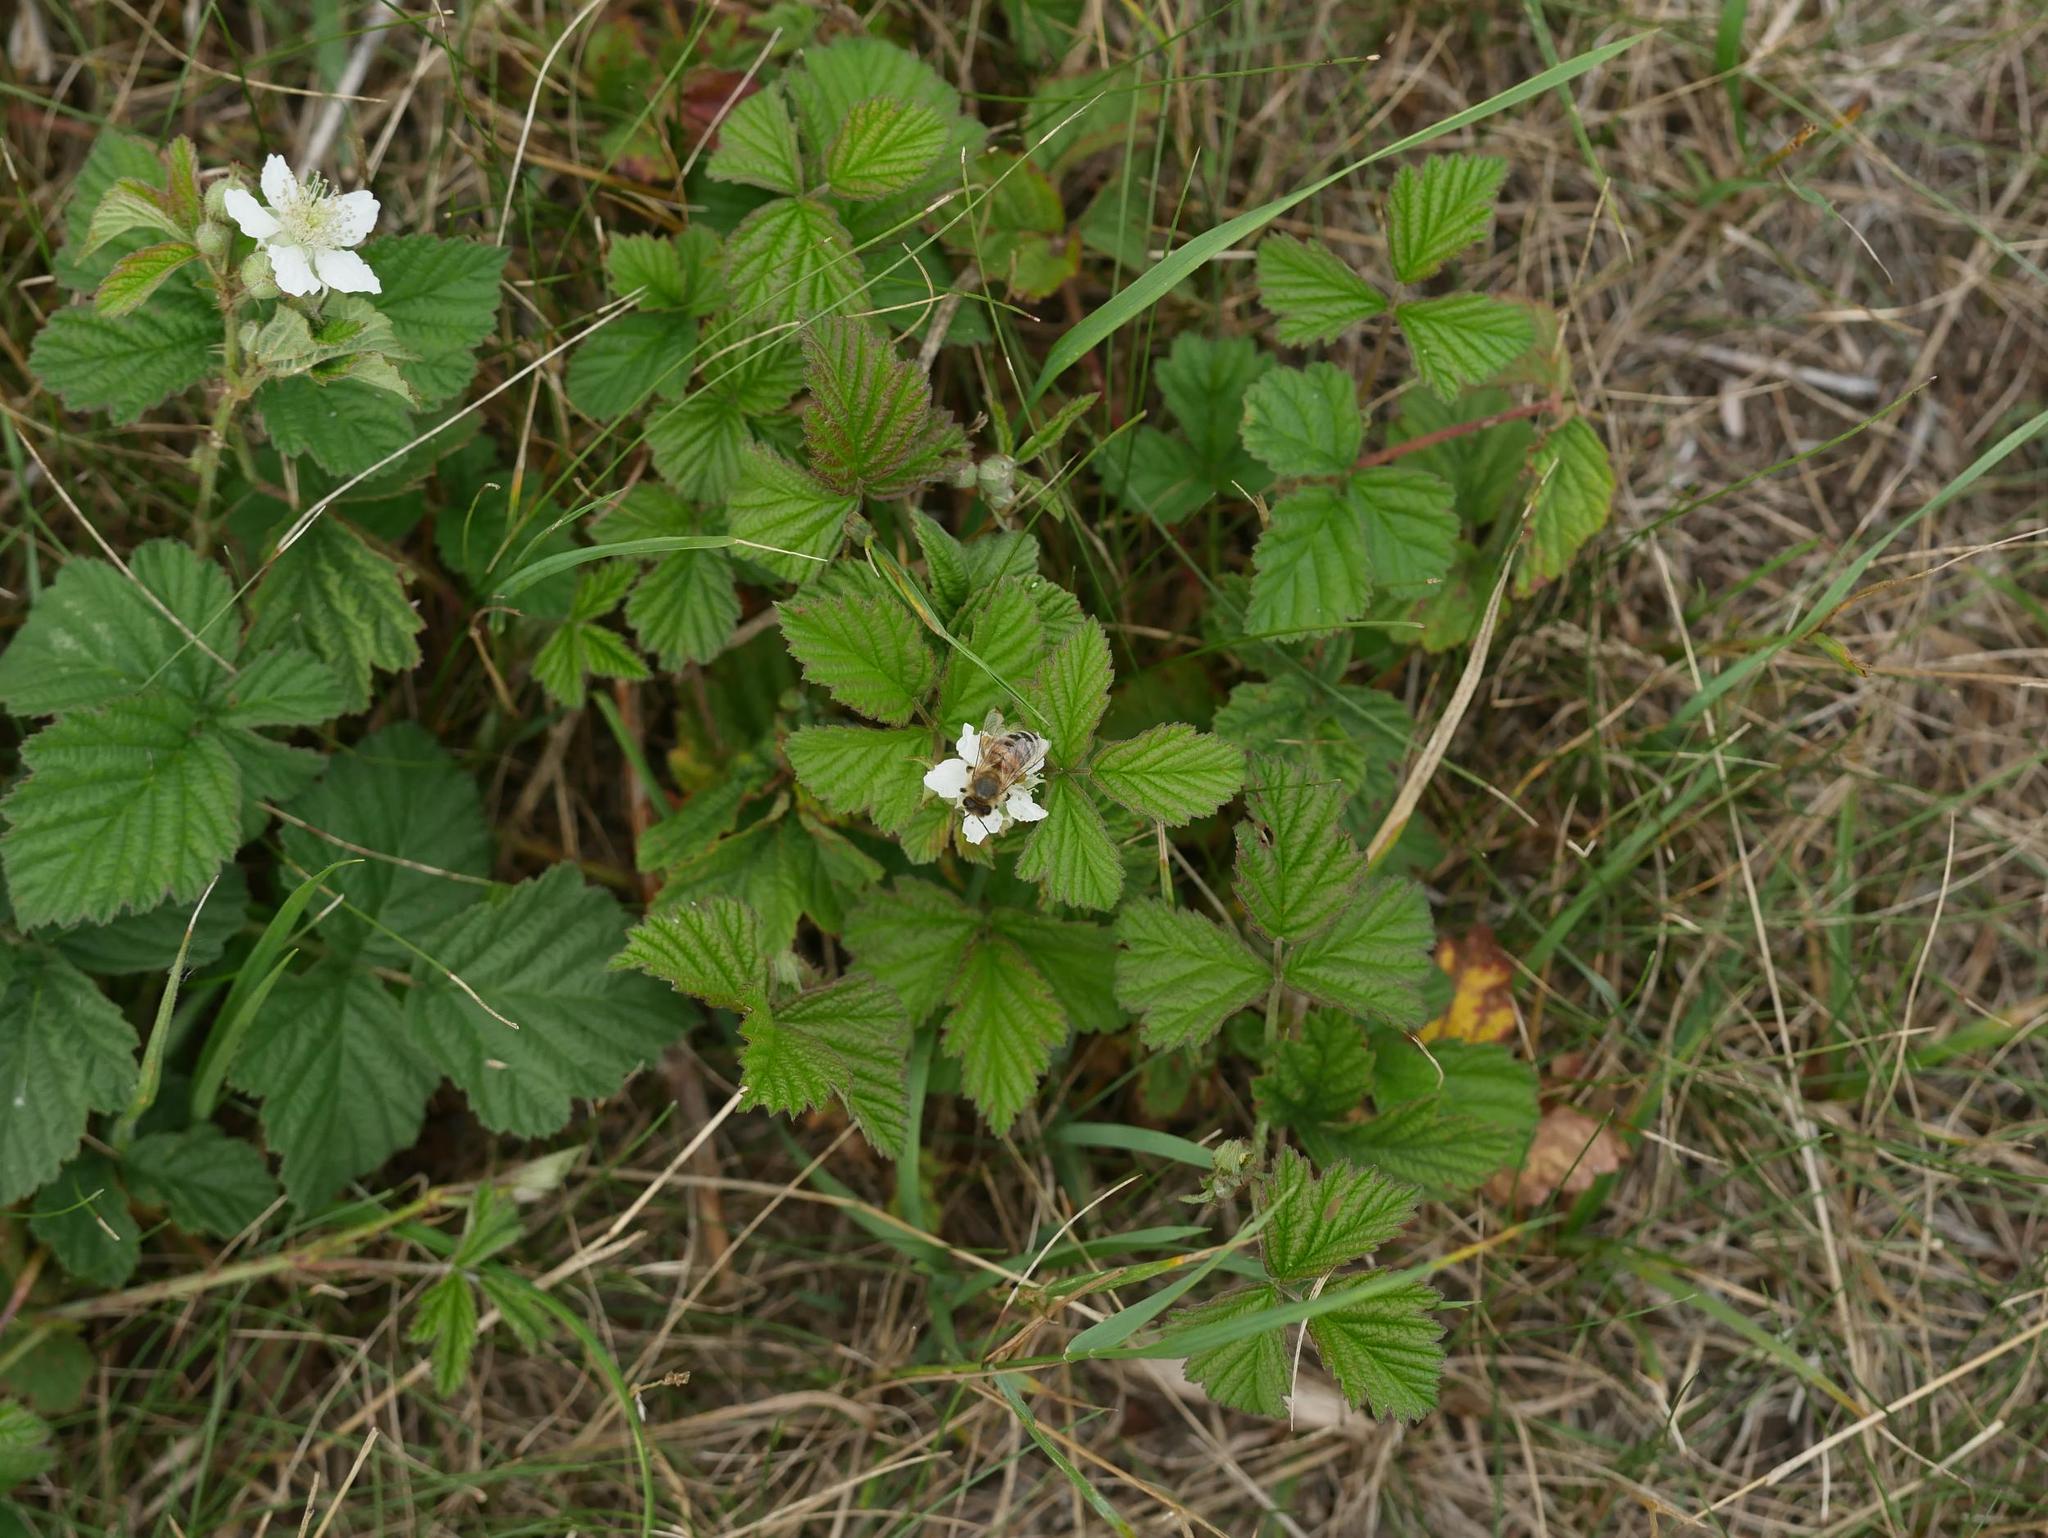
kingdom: Plantae
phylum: Tracheophyta
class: Magnoliopsida
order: Rosales
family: Rosaceae
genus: Rubus
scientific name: Rubus caesius
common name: Dewberry
